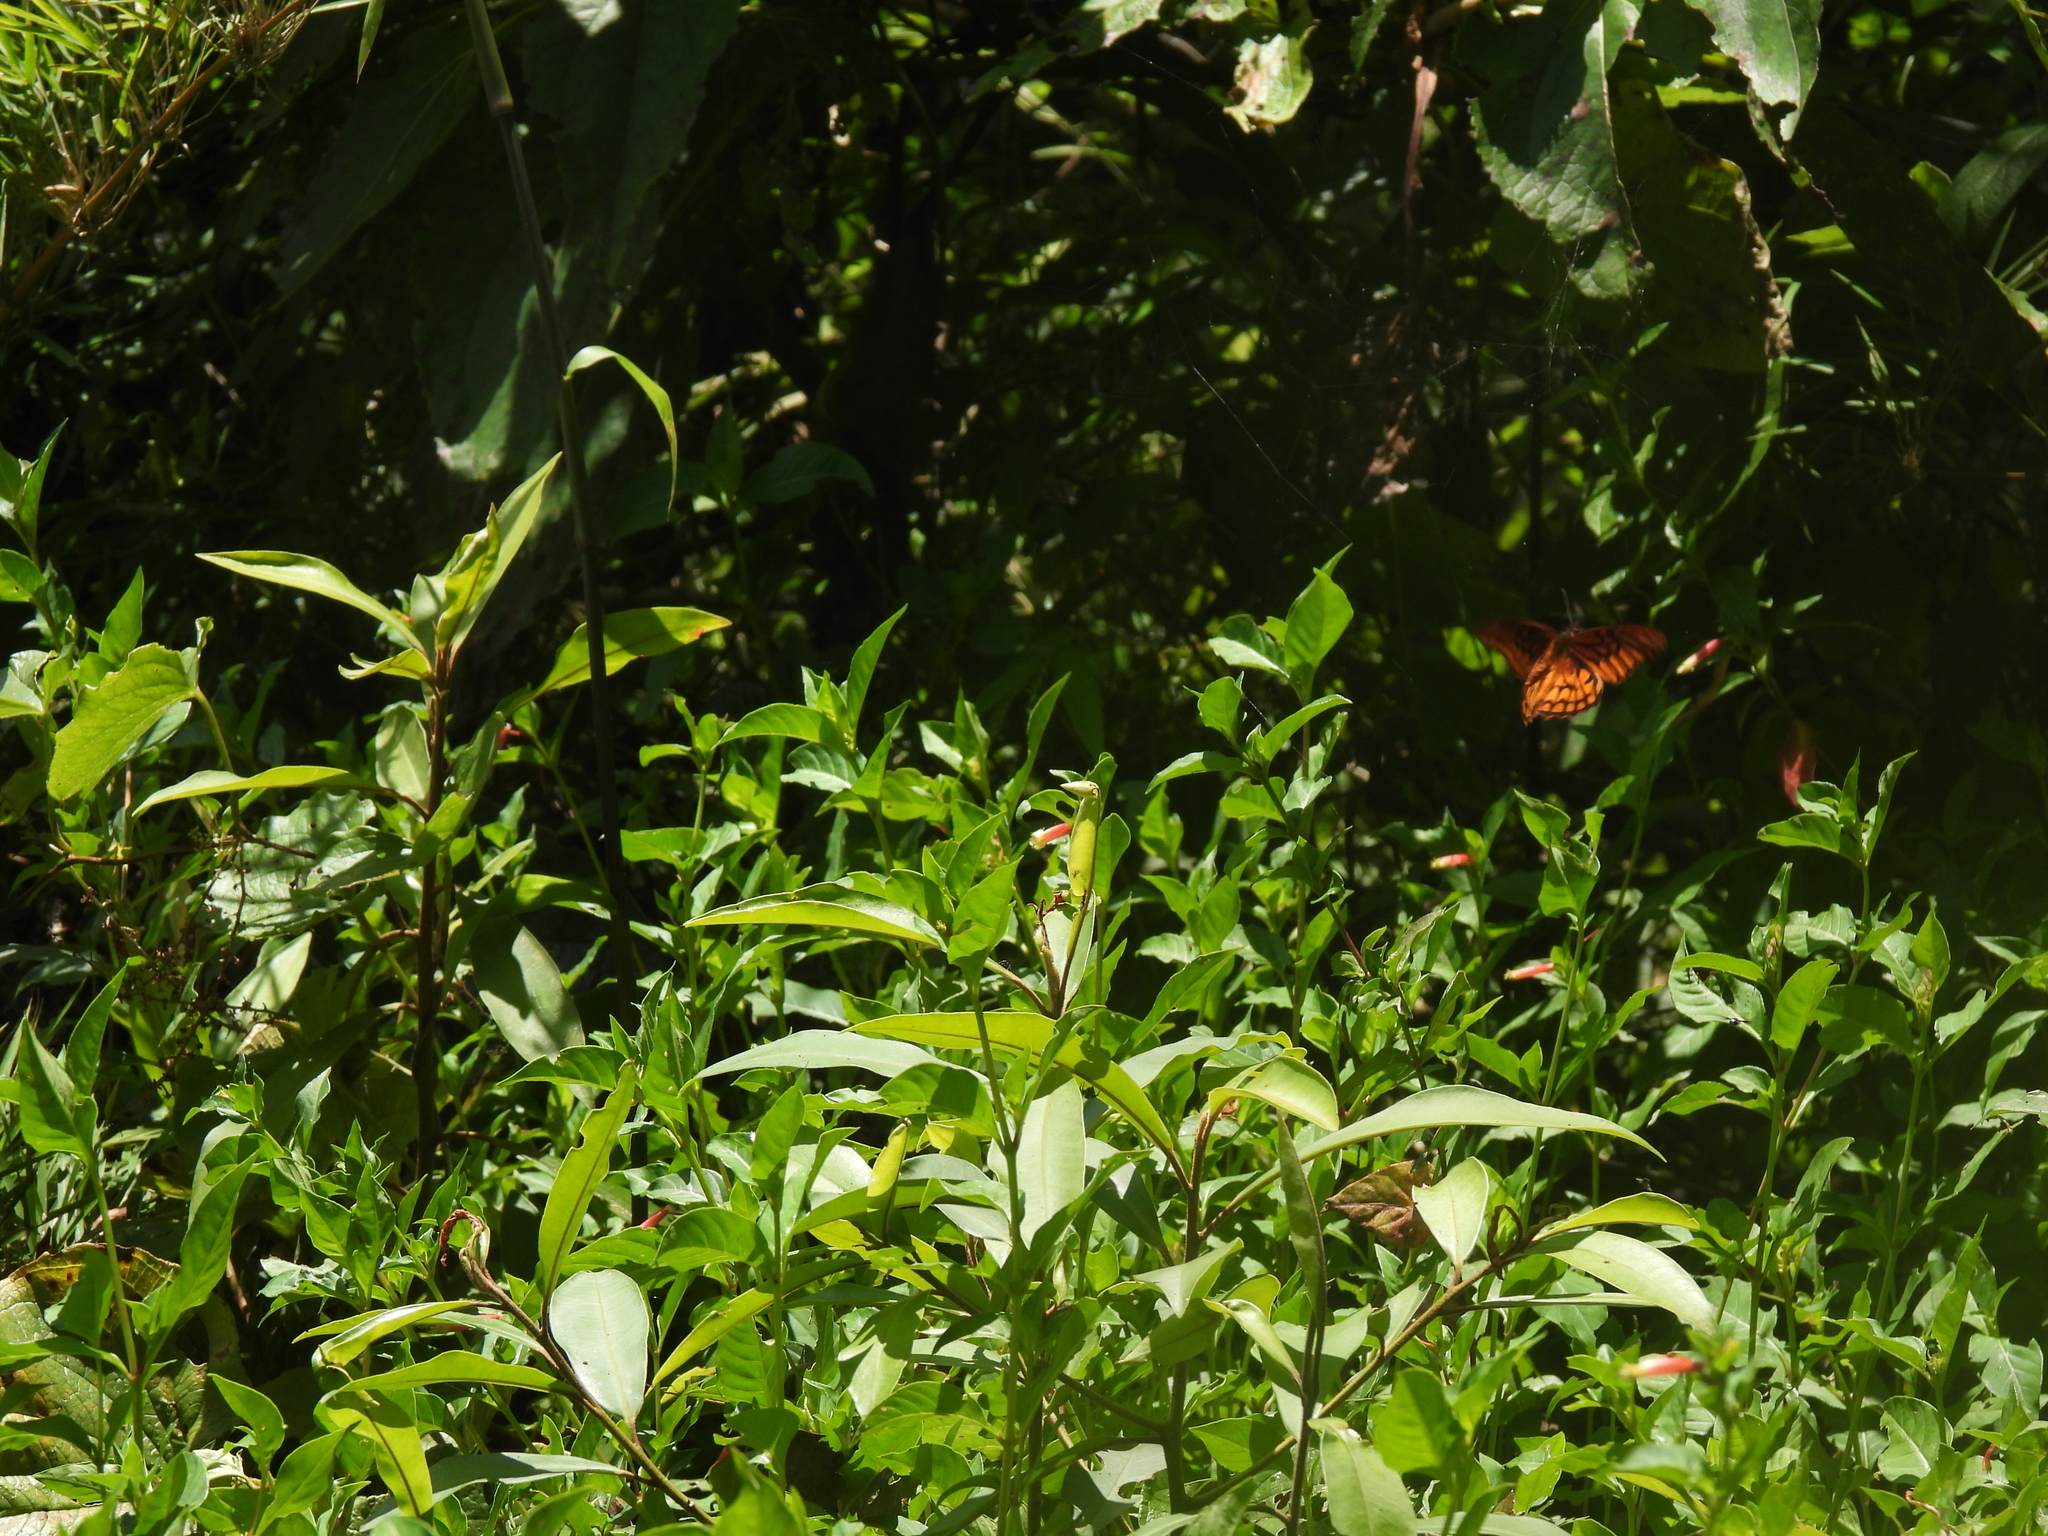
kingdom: Animalia
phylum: Arthropoda
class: Insecta
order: Lepidoptera
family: Nymphalidae
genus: Dione
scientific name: Dione moneta
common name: Mexican silverspot
